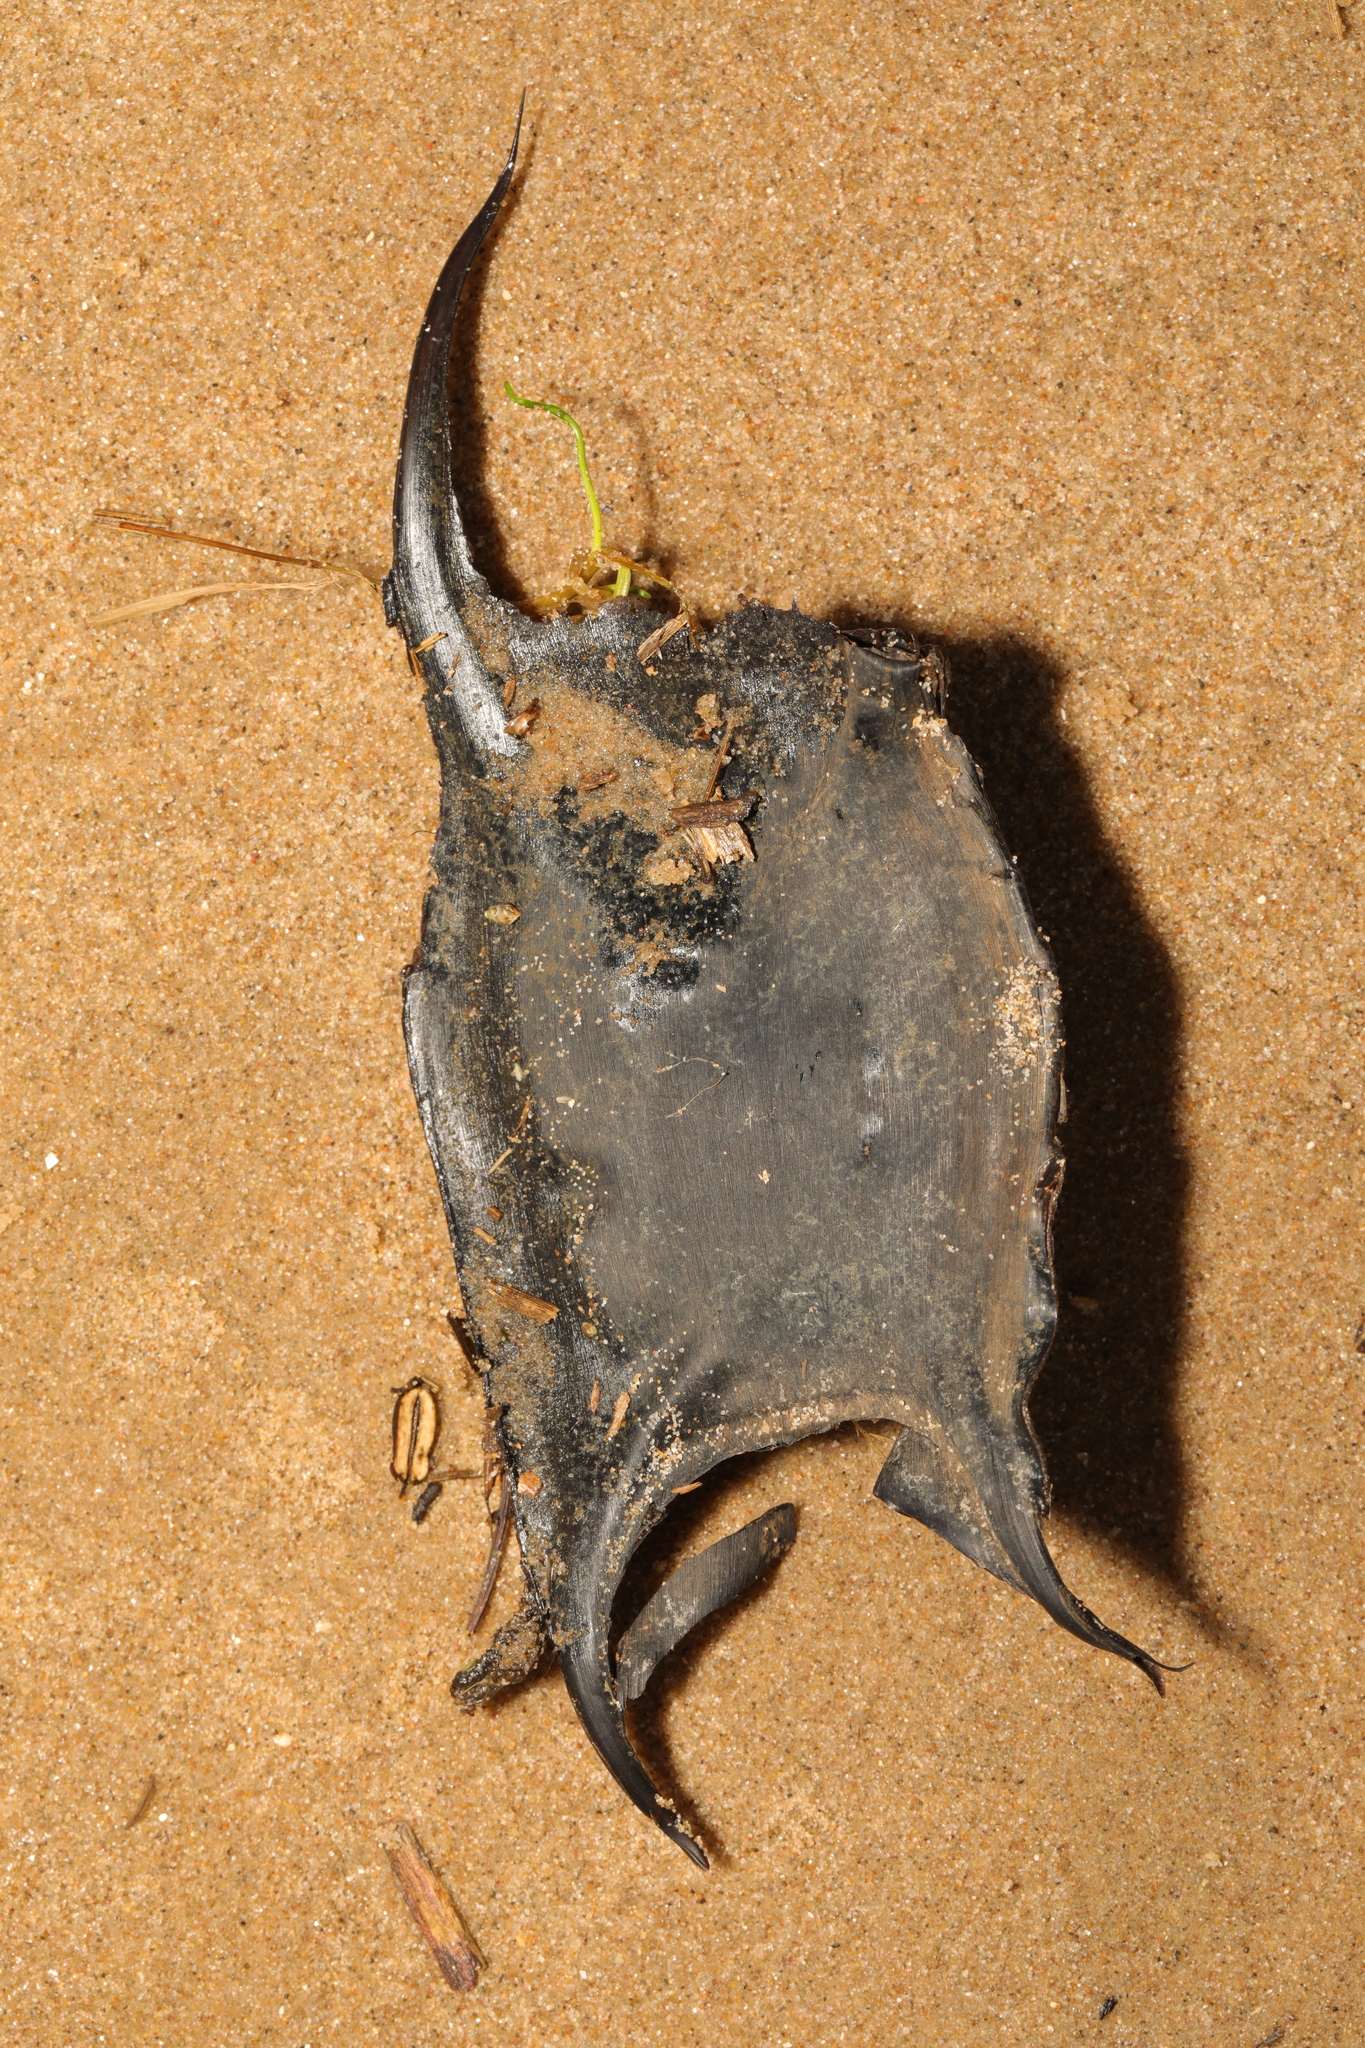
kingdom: Animalia
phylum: Chordata
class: Elasmobranchii
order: Rajiformes
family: Rajidae
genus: Raja
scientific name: Raja clavata
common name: Thornback ray
